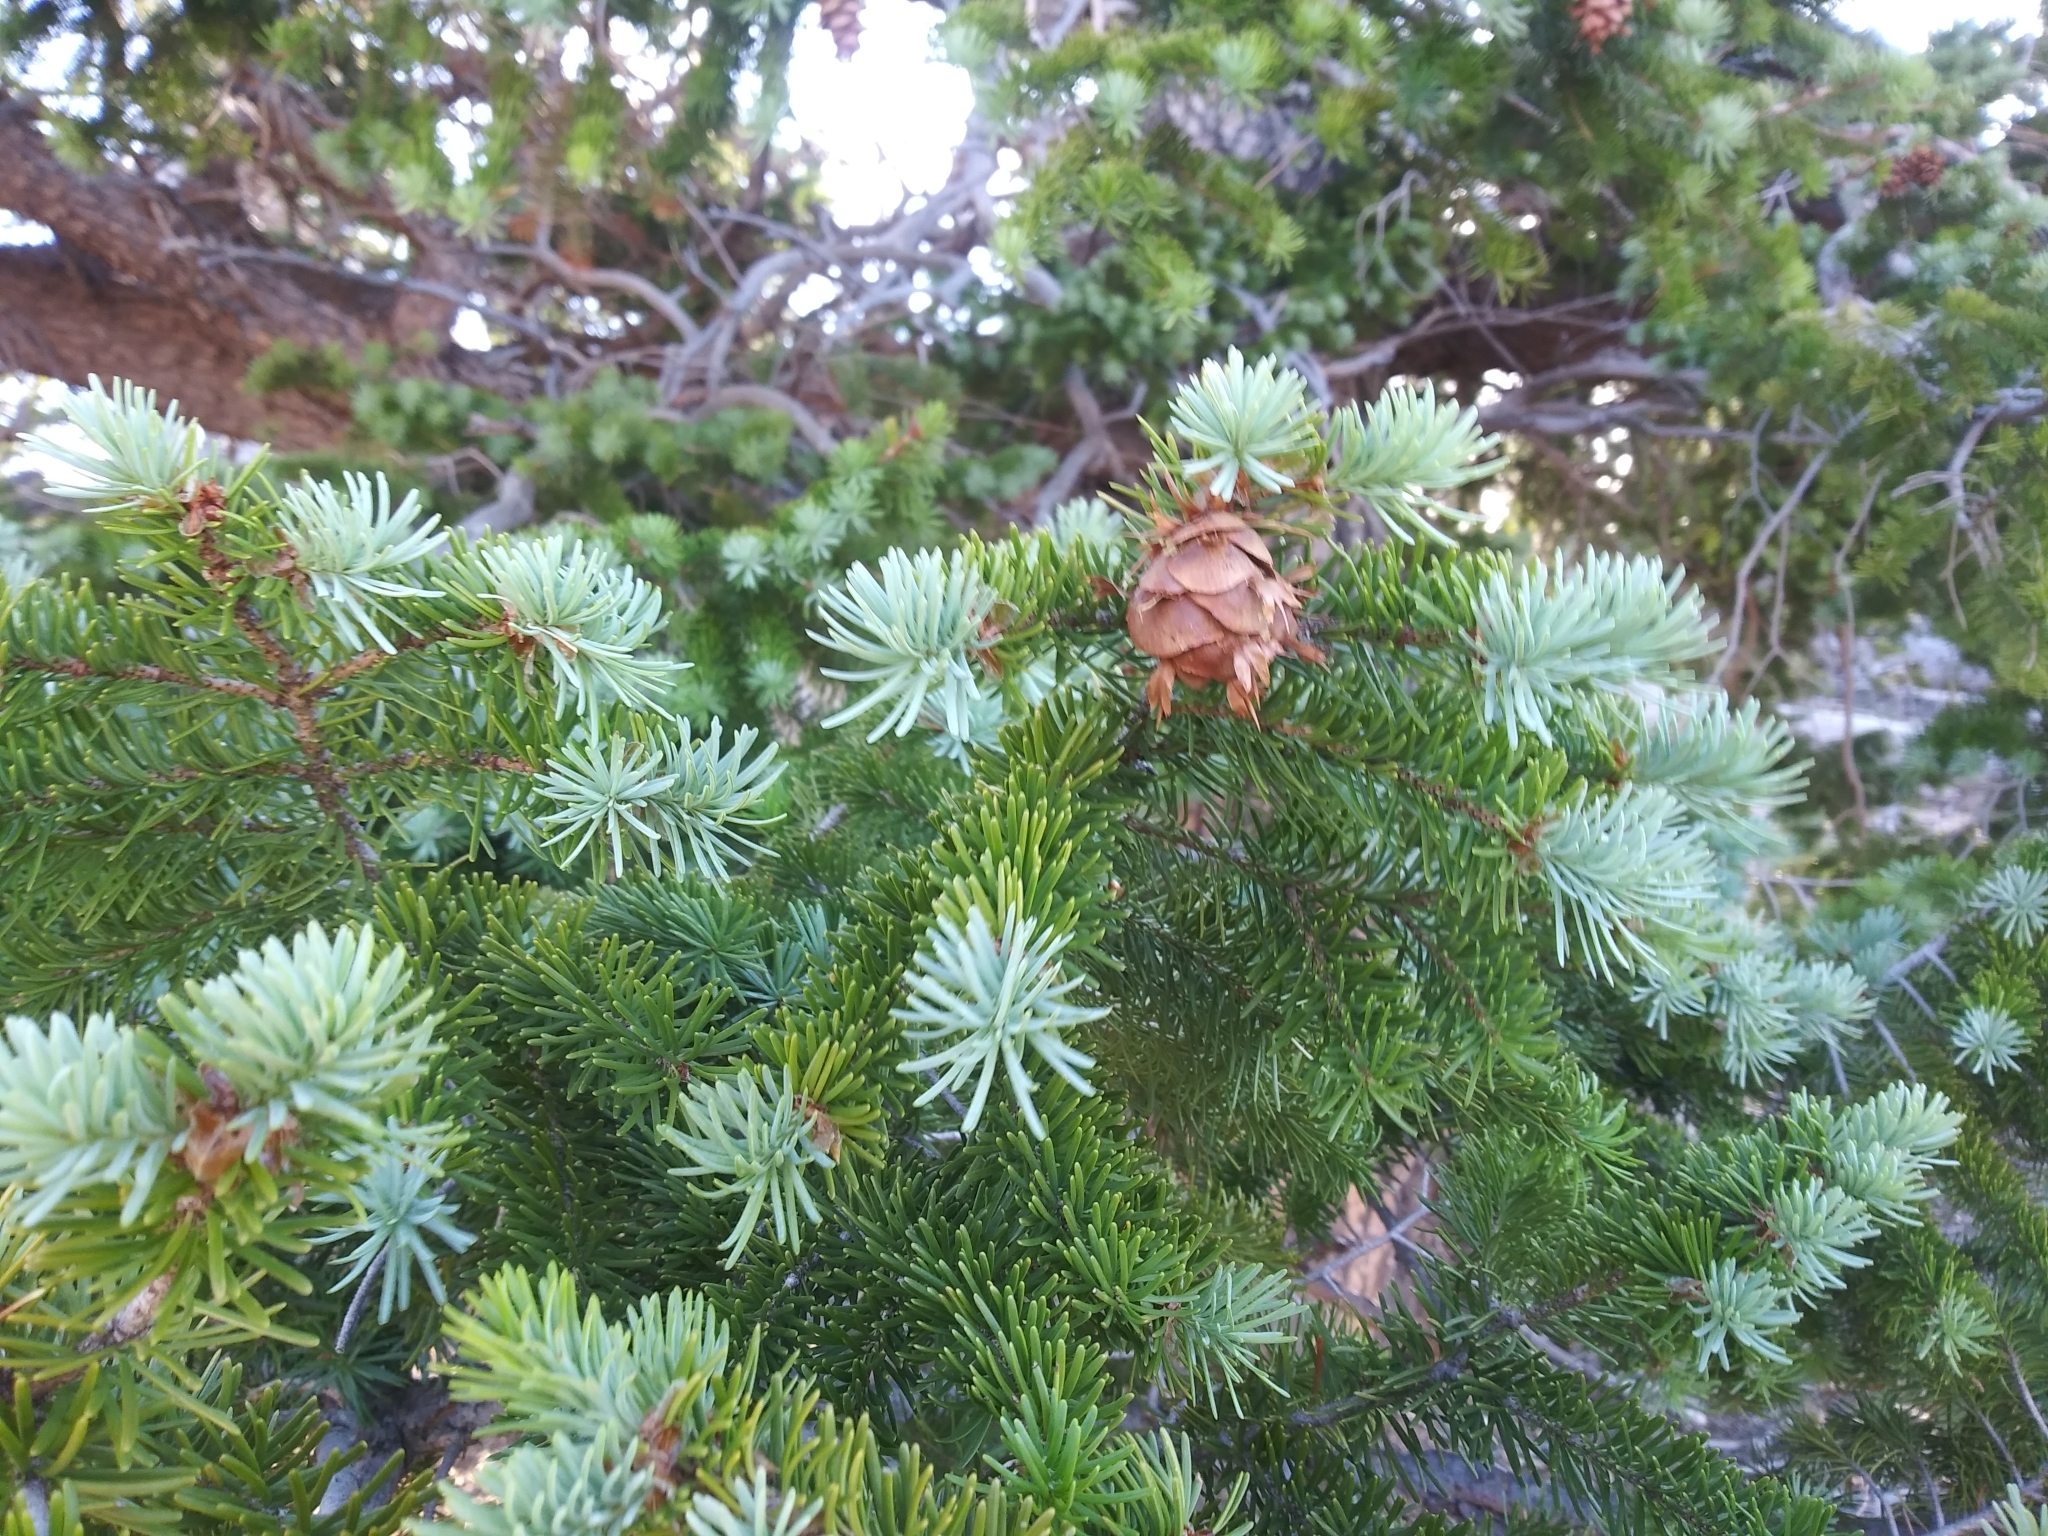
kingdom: Plantae
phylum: Tracheophyta
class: Pinopsida
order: Pinales
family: Pinaceae
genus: Pseudotsuga
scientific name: Pseudotsuga menziesii
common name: Douglas fir
